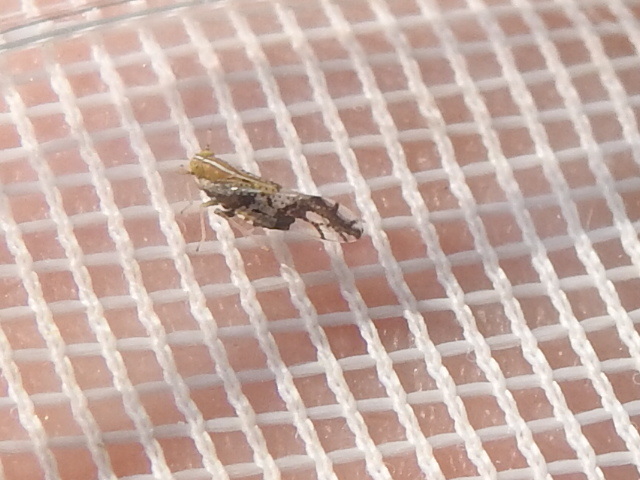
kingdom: Animalia
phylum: Arthropoda
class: Insecta
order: Hemiptera
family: Delphacidae
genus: Liburniella
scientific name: Liburniella ornata
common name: Ornate planthopper
